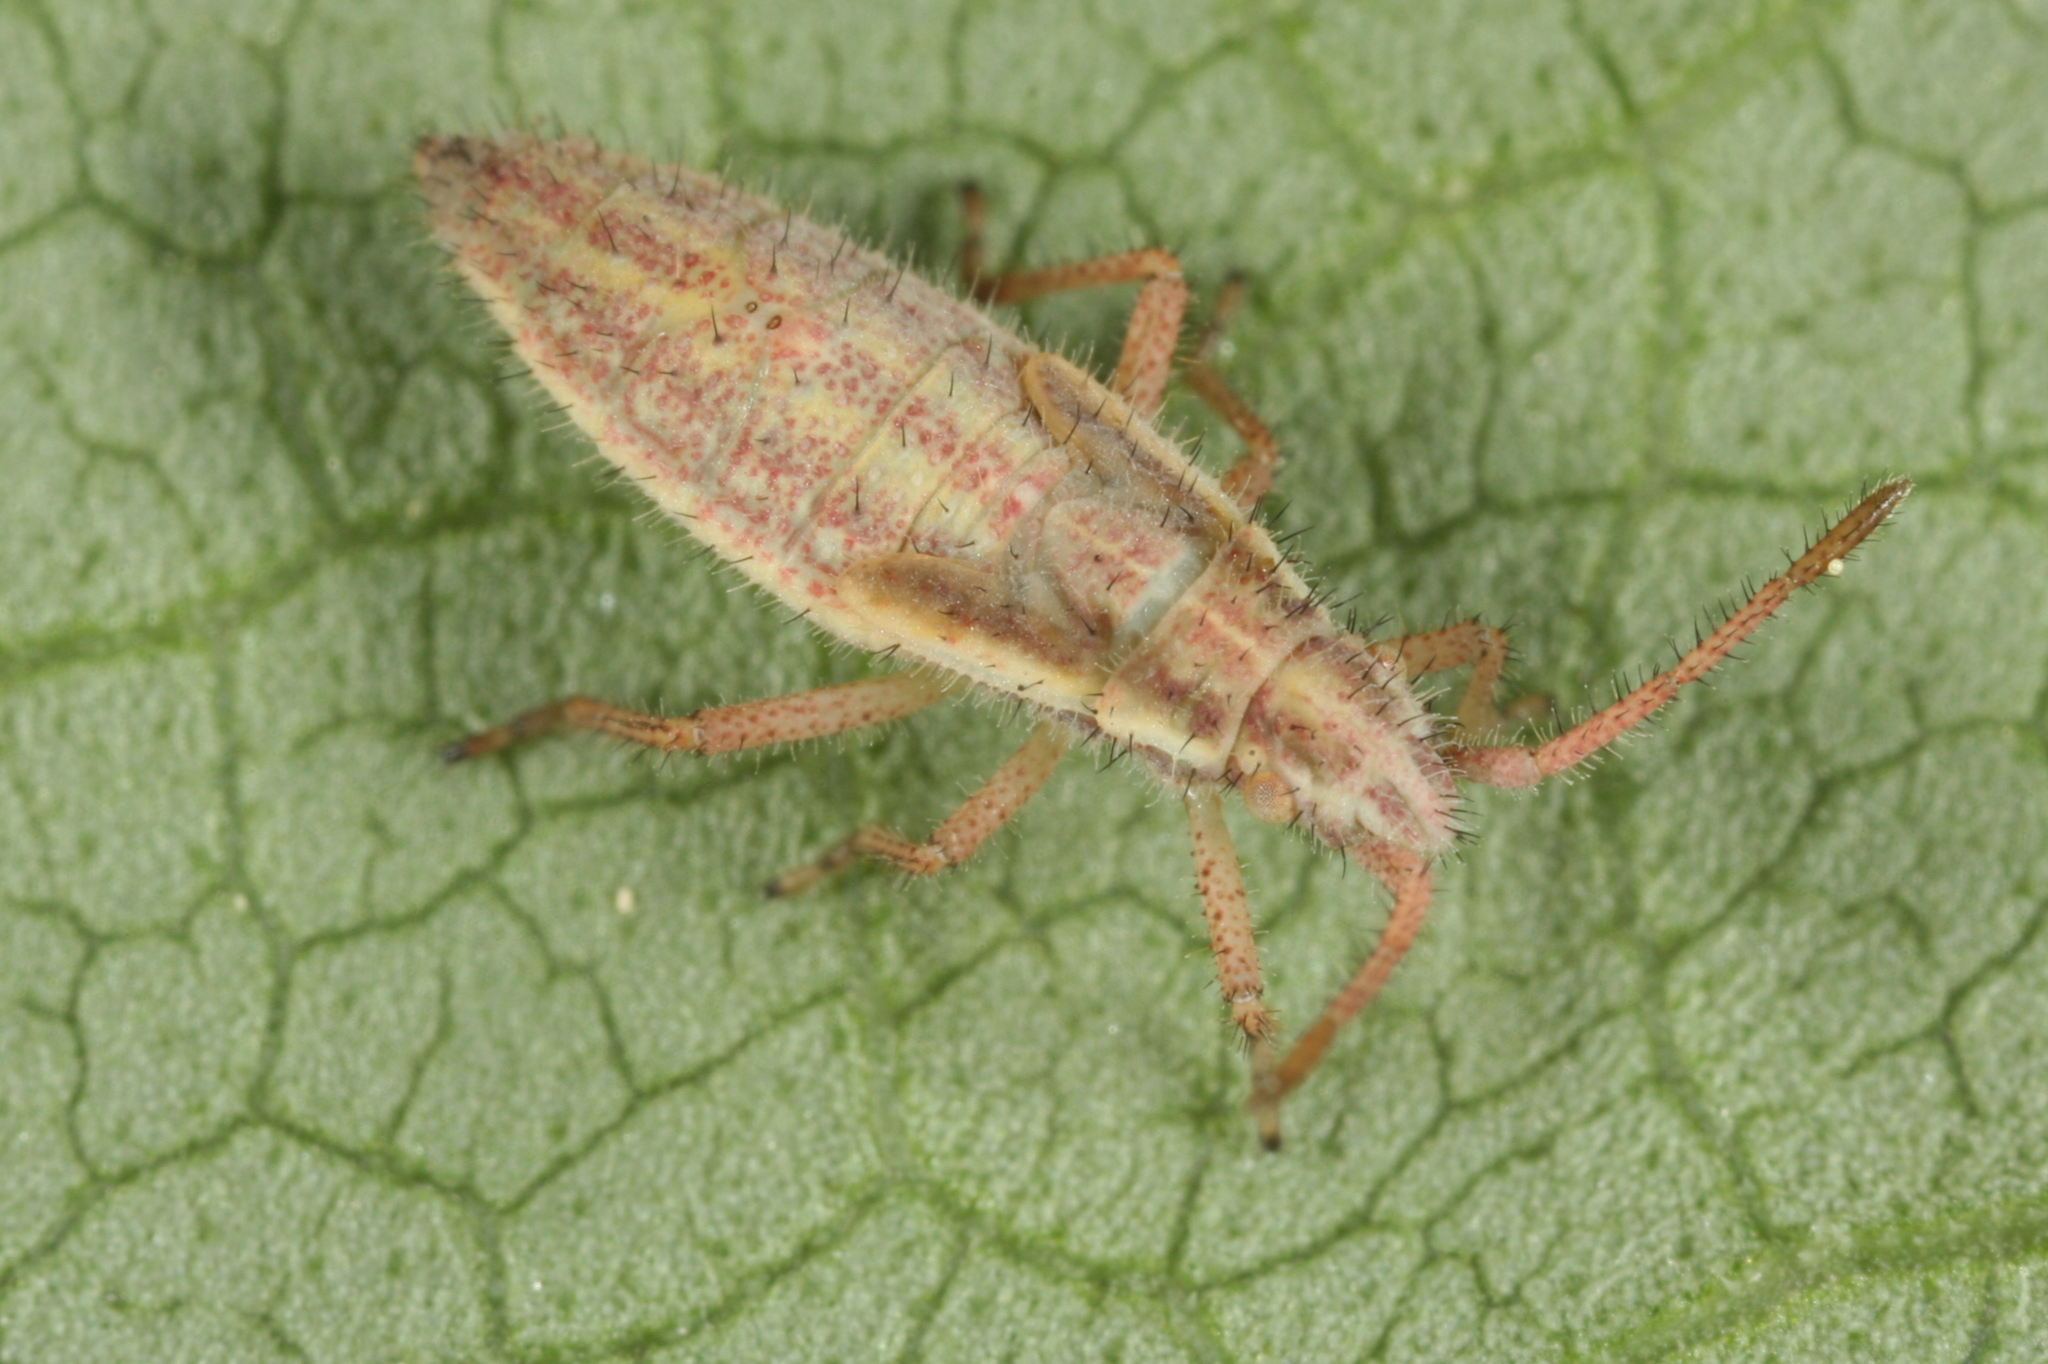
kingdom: Animalia
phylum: Arthropoda
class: Insecta
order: Hemiptera
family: Rhopalidae
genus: Myrmus
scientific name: Myrmus miriformis
